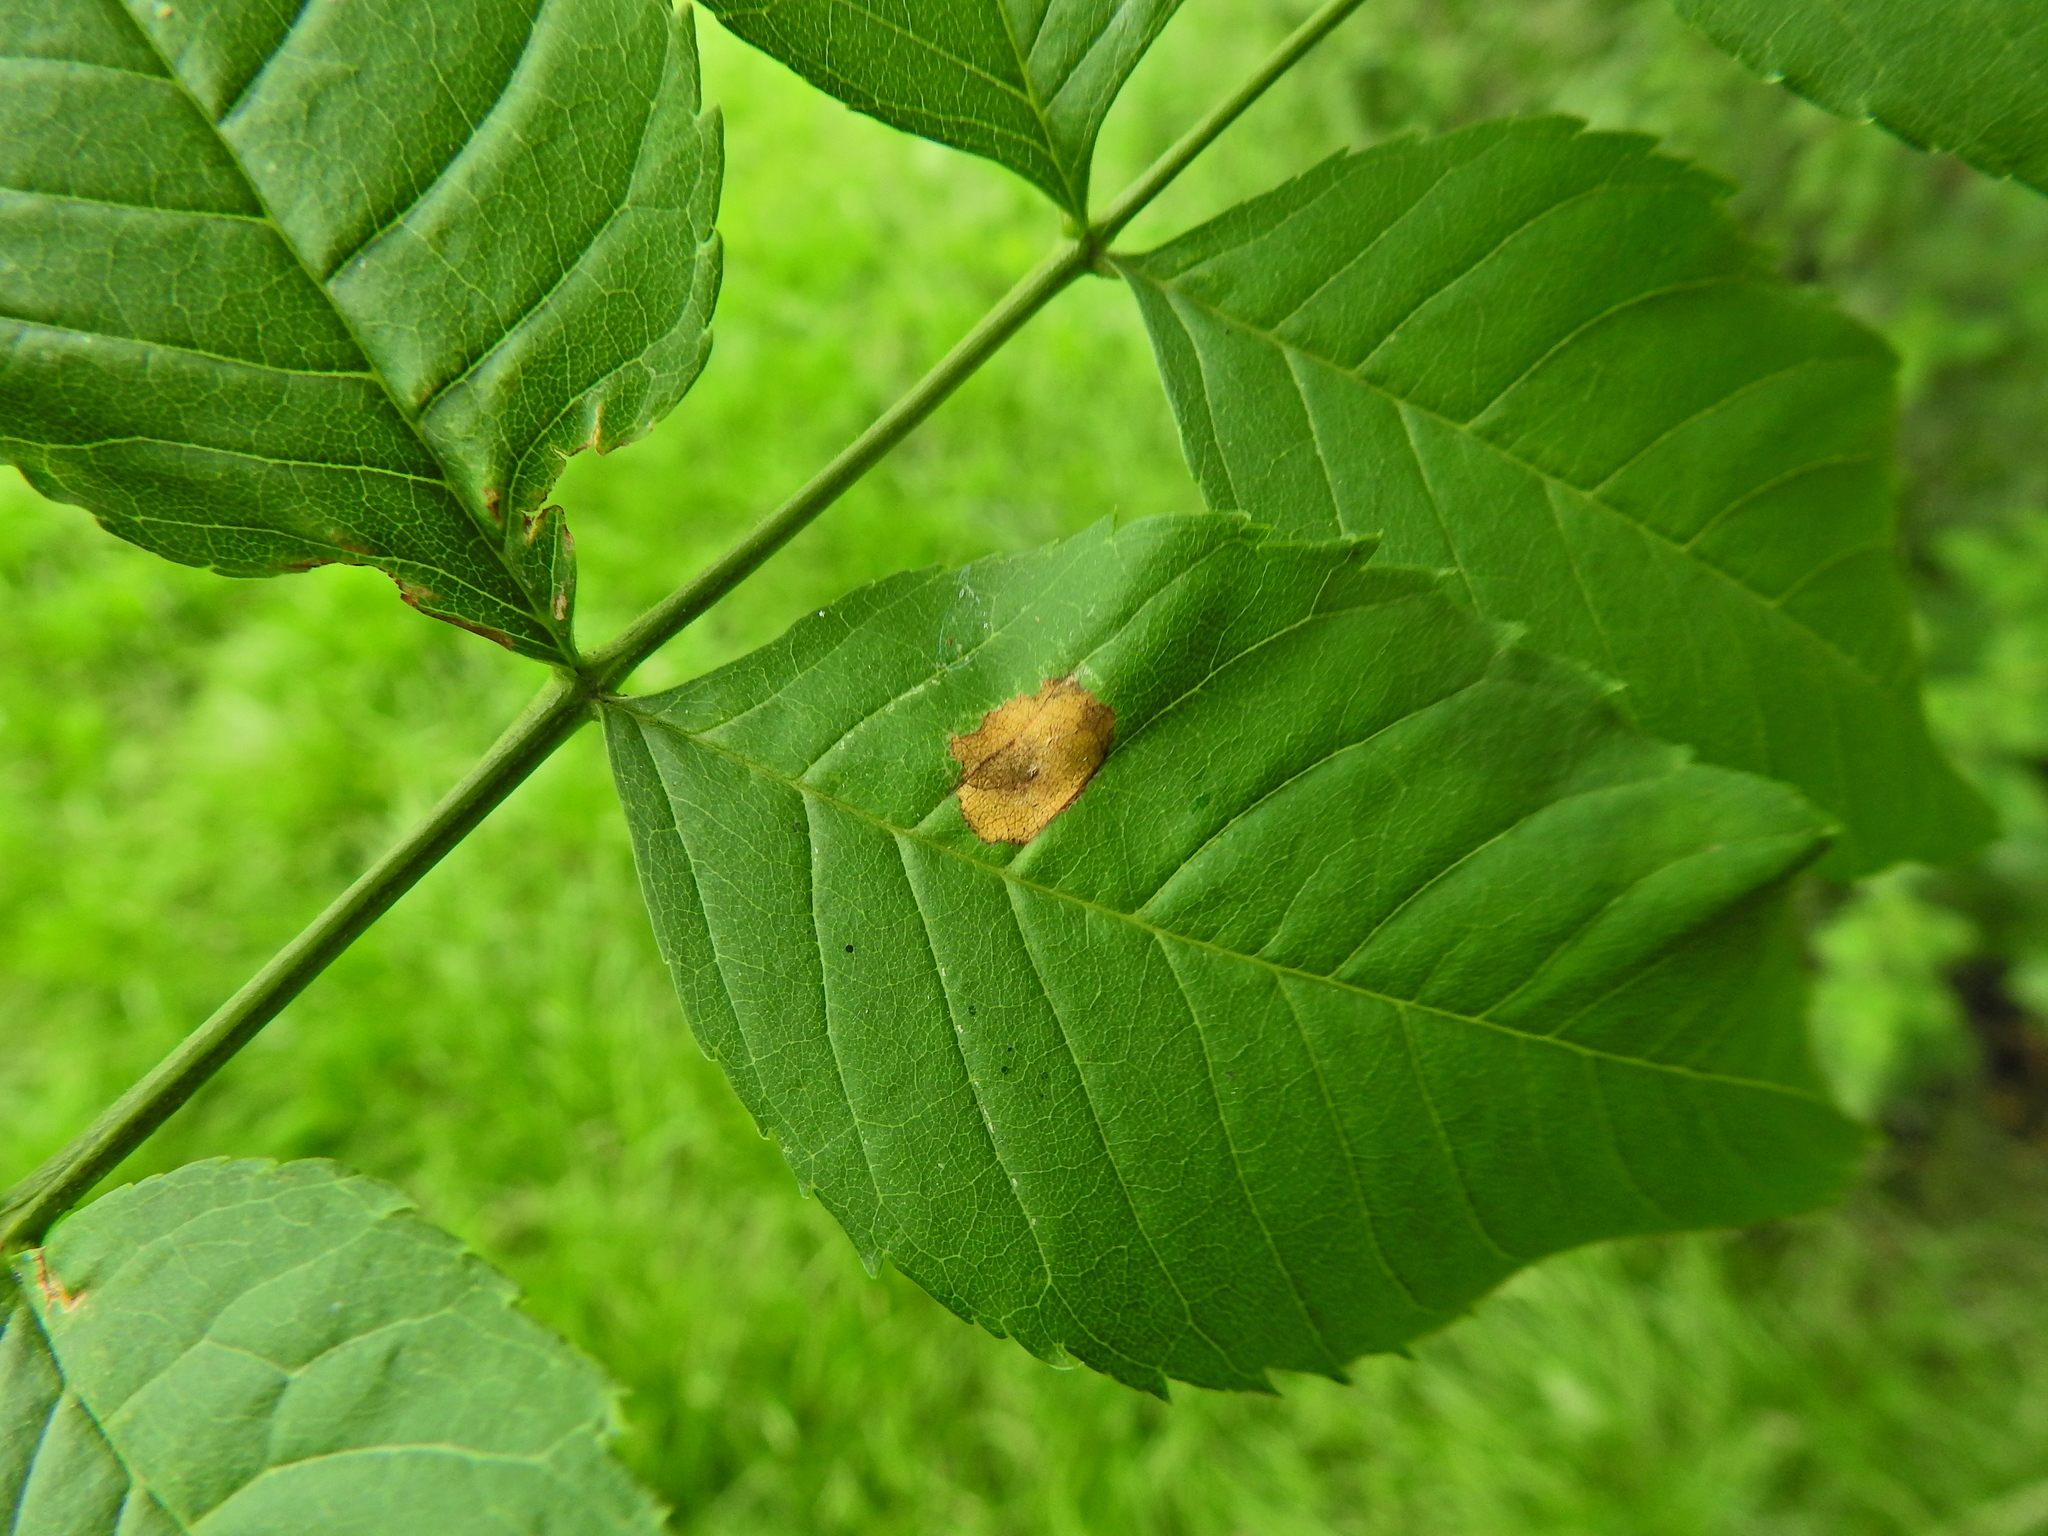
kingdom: Animalia
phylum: Arthropoda
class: Insecta
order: Diptera
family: Cecidomyiidae
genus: Dasineura
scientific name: Dasineura fraxinea
